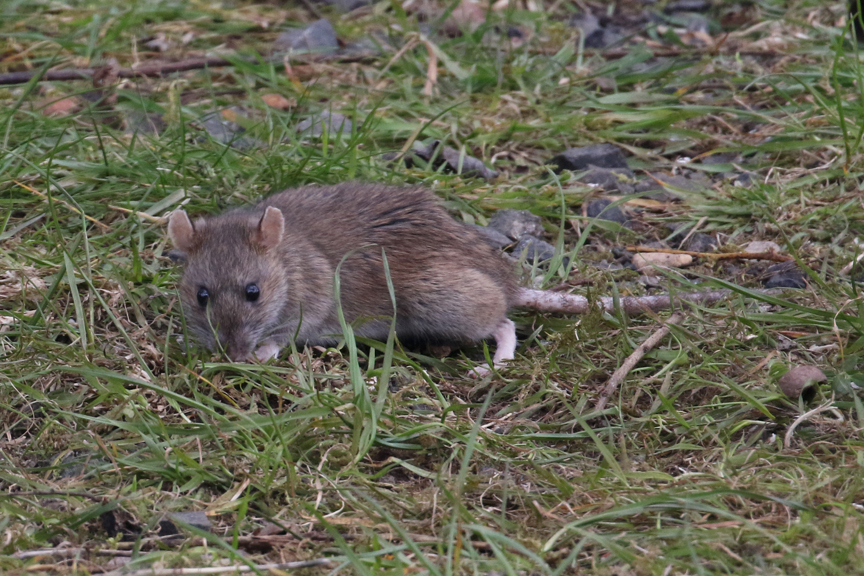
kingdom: Animalia
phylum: Chordata
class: Mammalia
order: Rodentia
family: Muridae
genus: Rattus
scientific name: Rattus norvegicus
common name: Brown rat
